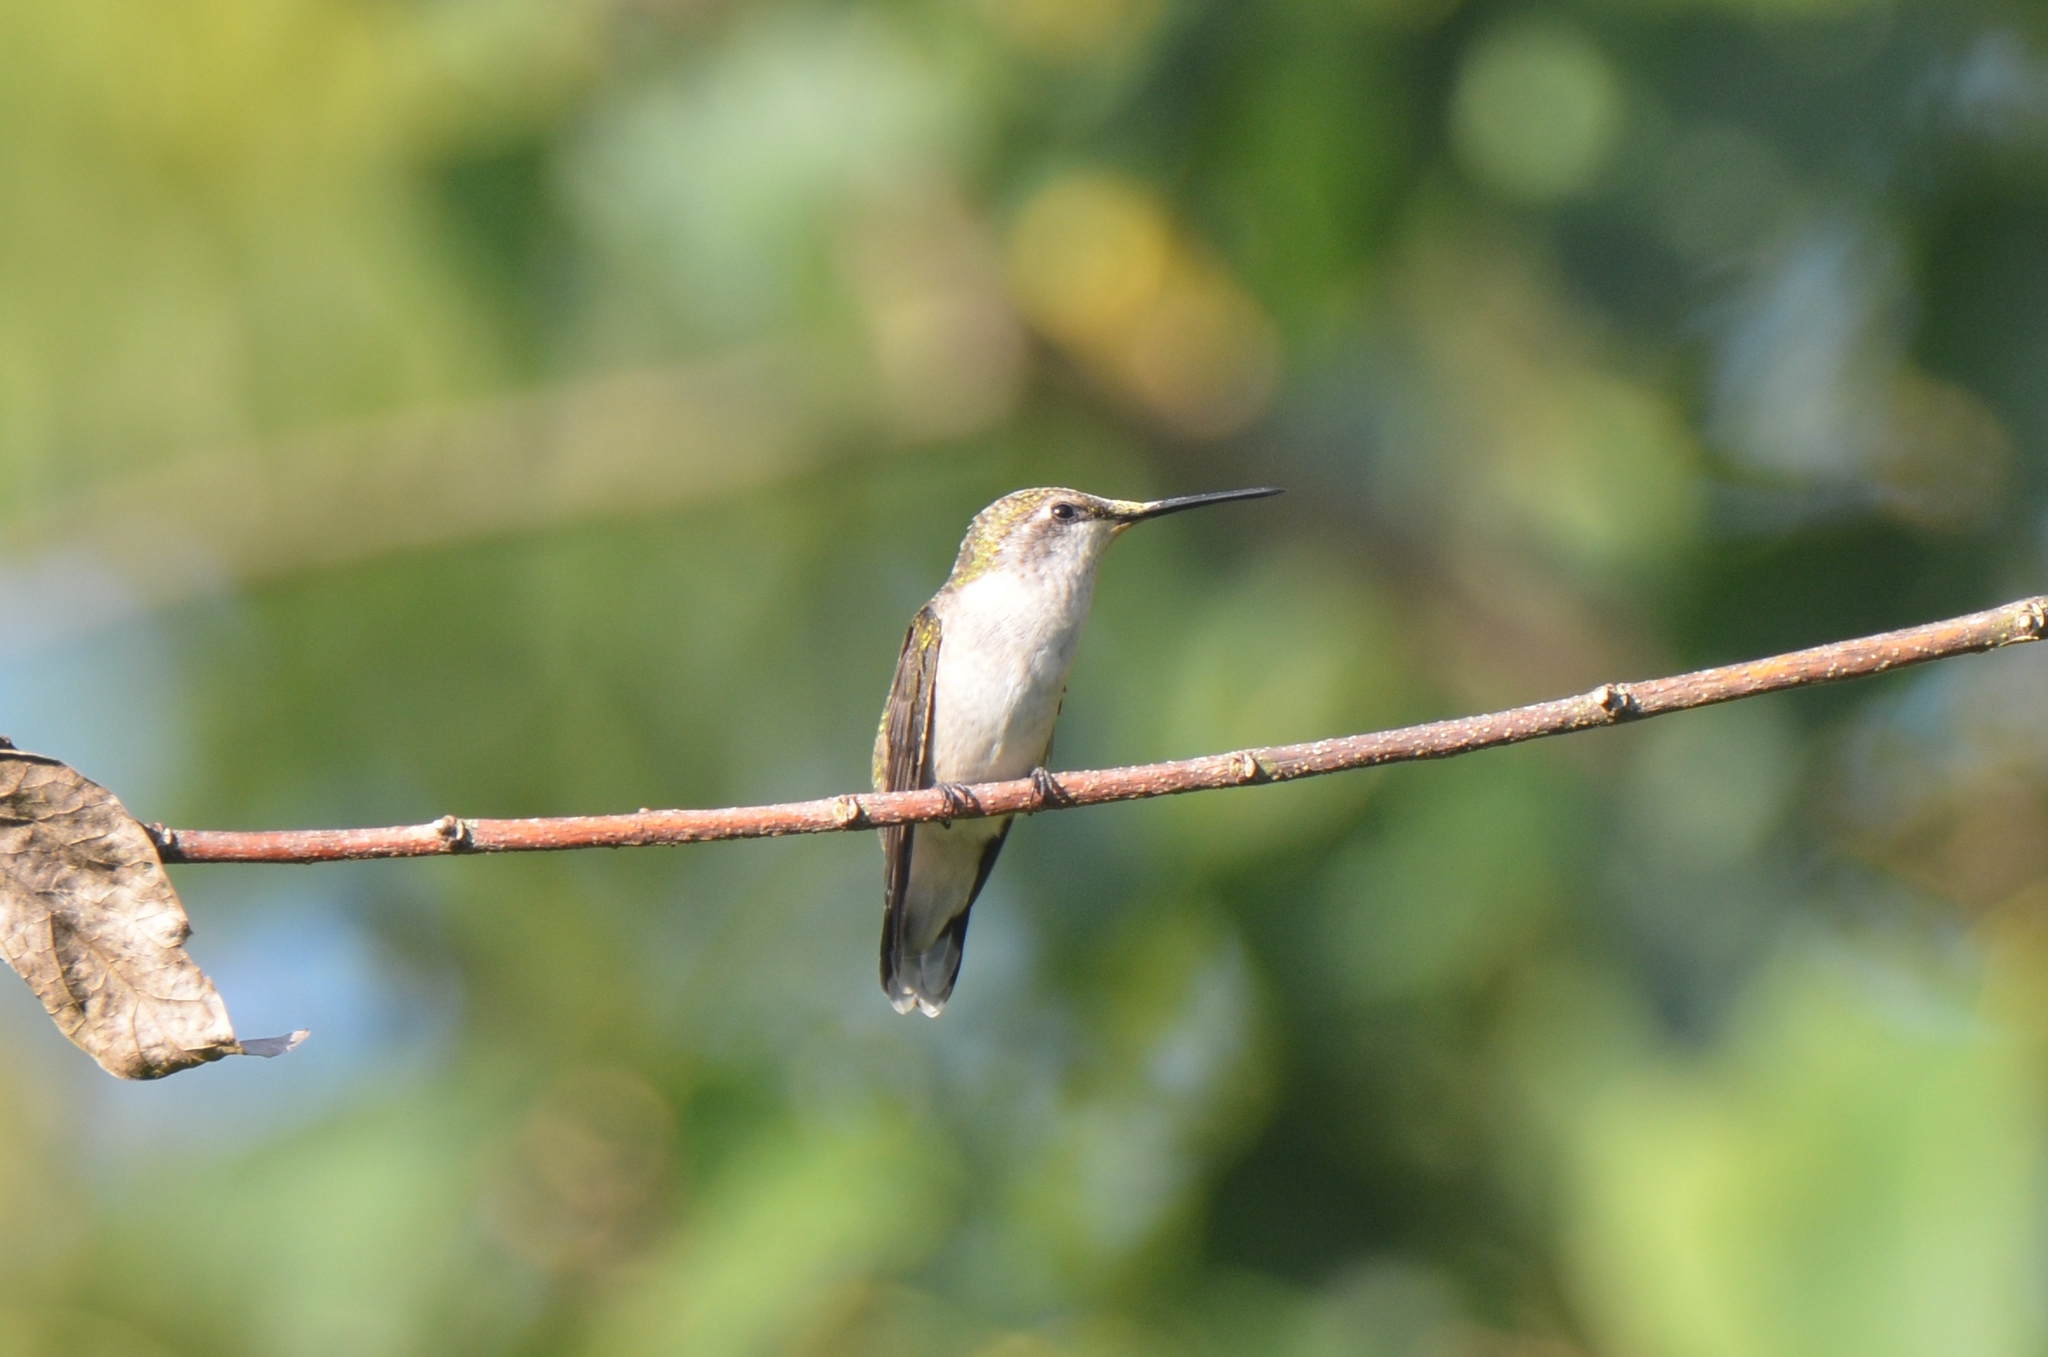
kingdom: Animalia
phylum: Chordata
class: Aves
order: Apodiformes
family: Trochilidae
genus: Archilochus
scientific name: Archilochus colubris
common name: Ruby-throated hummingbird
